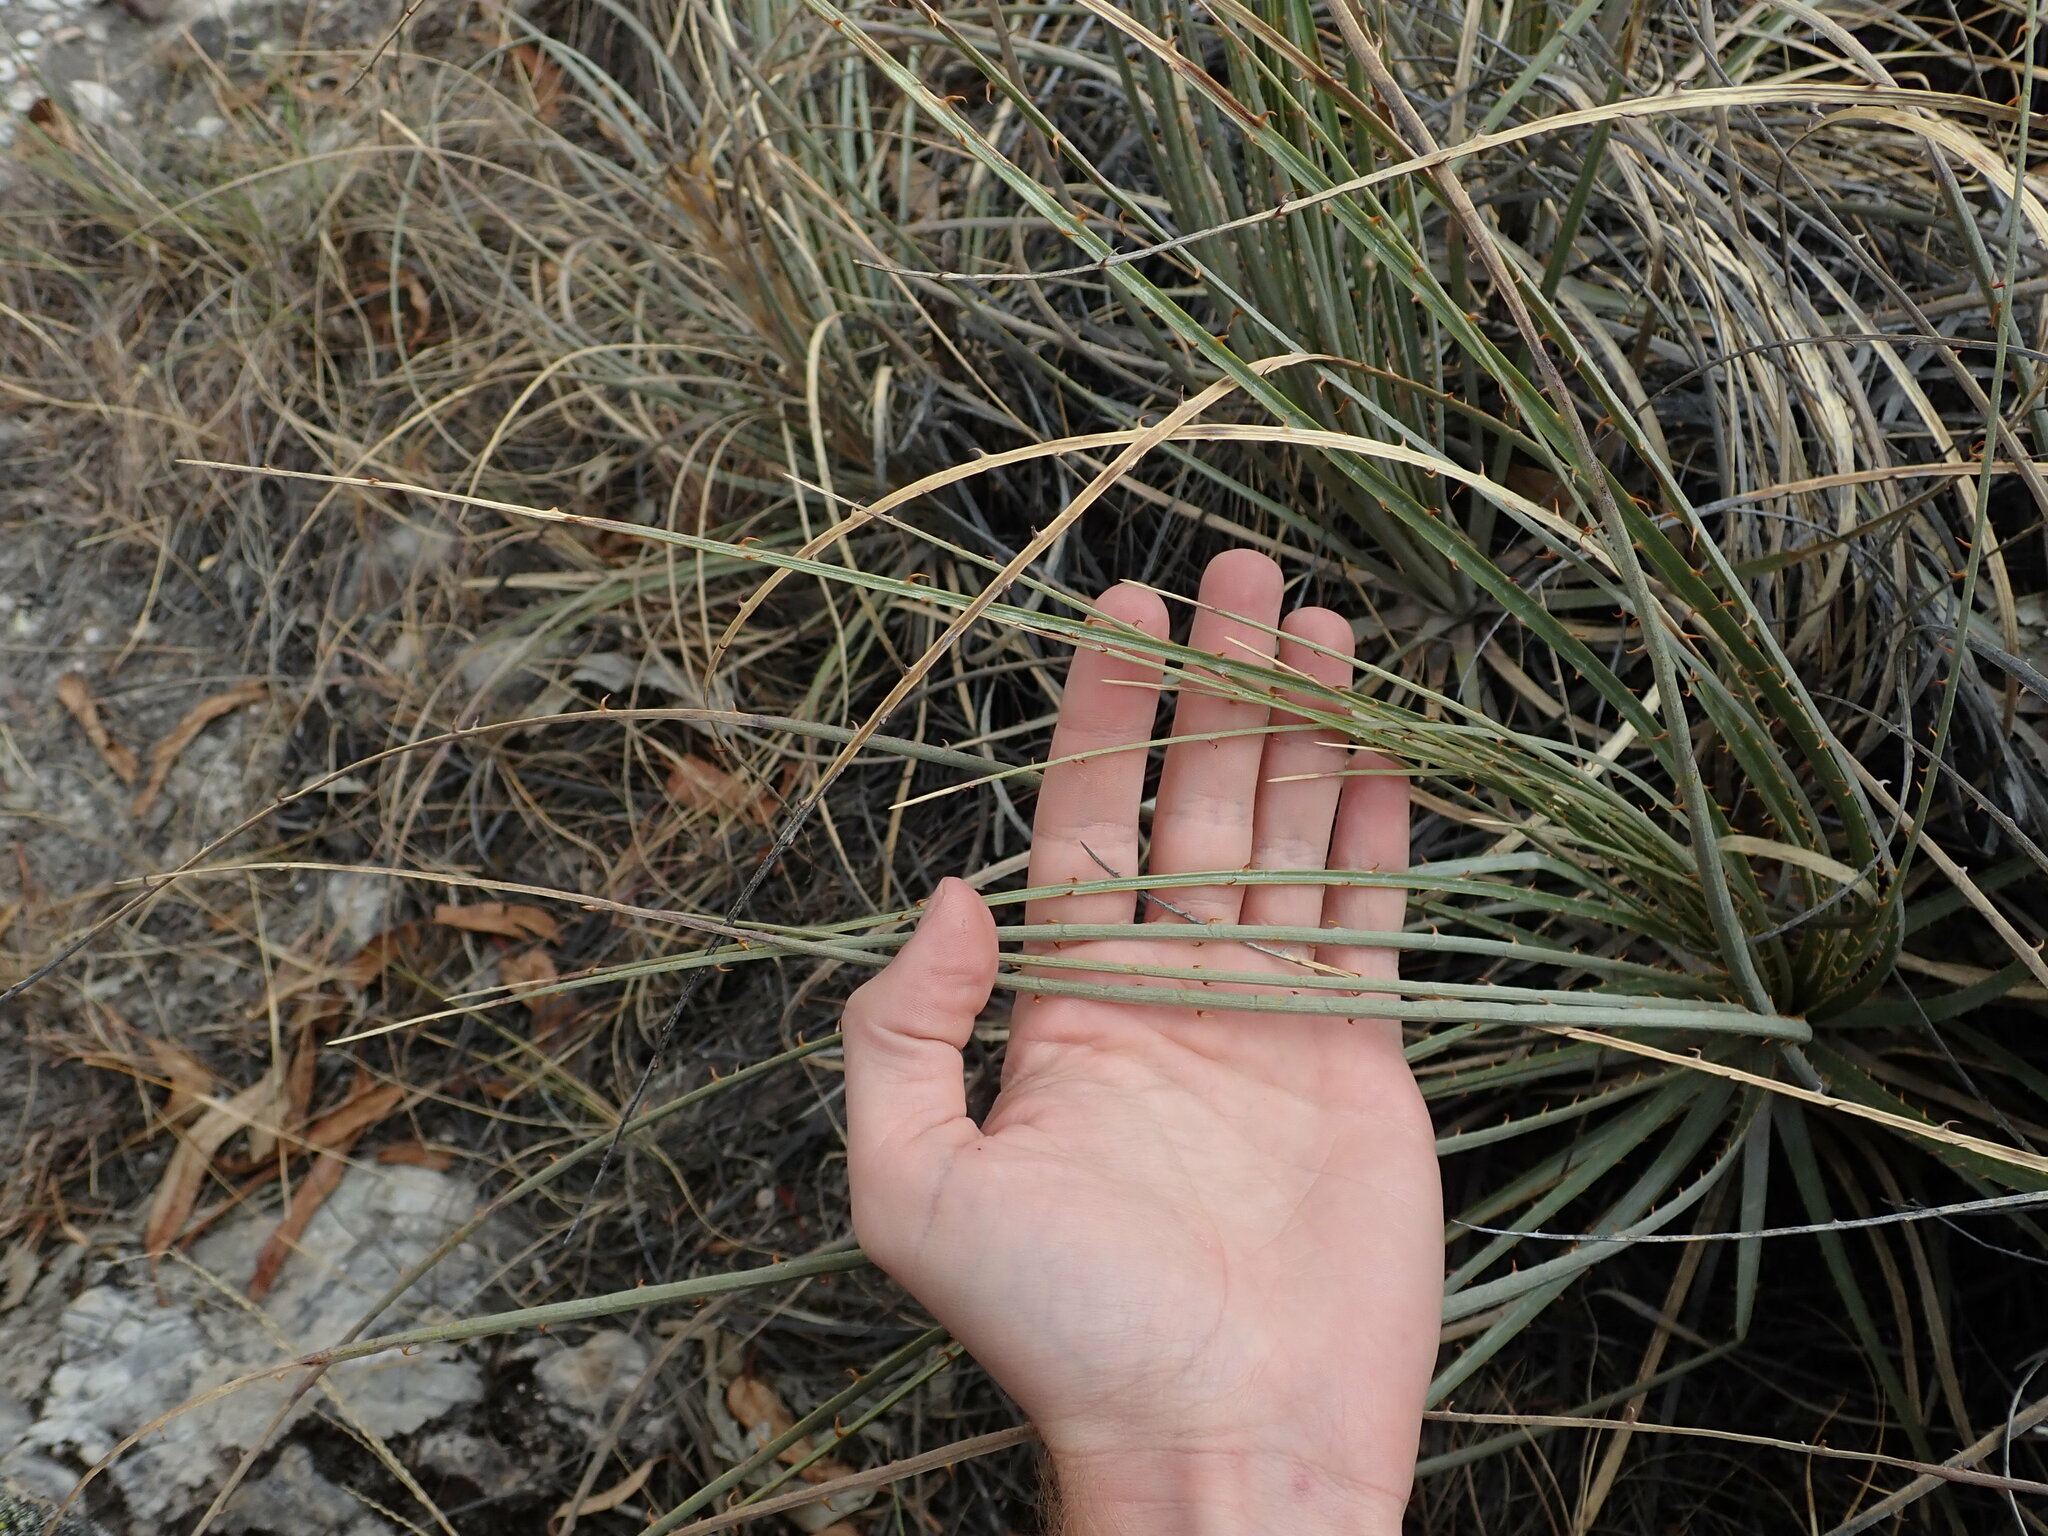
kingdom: Plantae
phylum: Tracheophyta
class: Liliopsida
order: Poales
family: Bromeliaceae
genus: Puya
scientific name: Puya humilis
